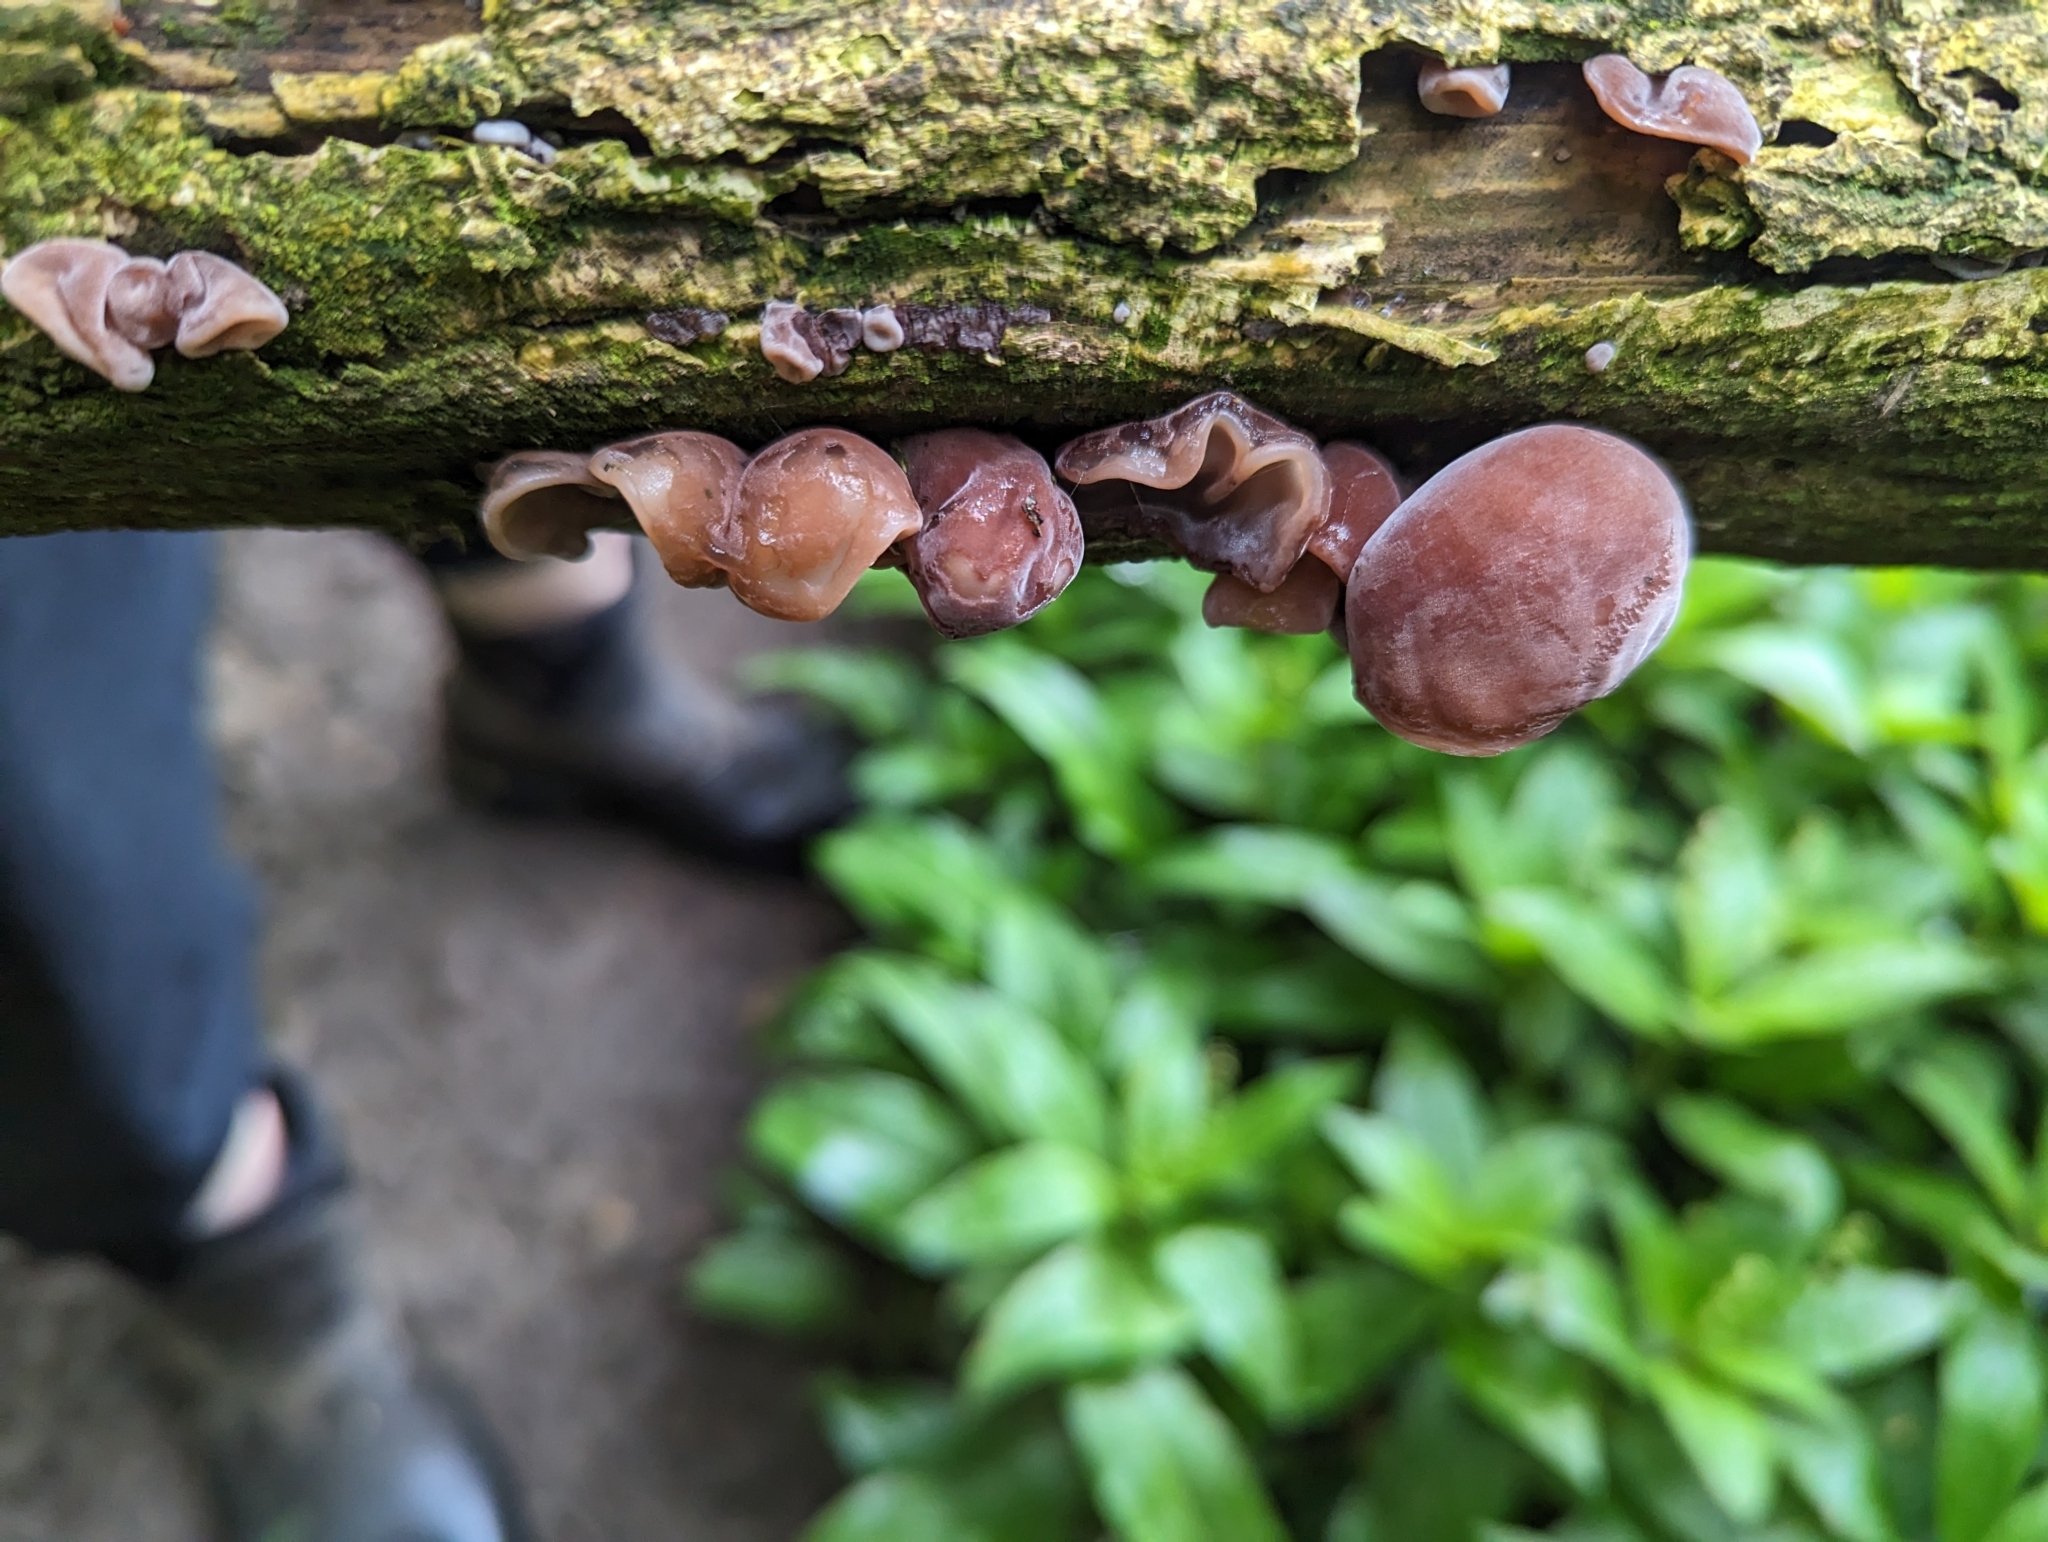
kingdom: Fungi
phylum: Basidiomycota
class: Agaricomycetes
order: Auriculariales
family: Auriculariaceae
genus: Auricularia
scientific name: Auricularia auricula-judae
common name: Jelly ear
